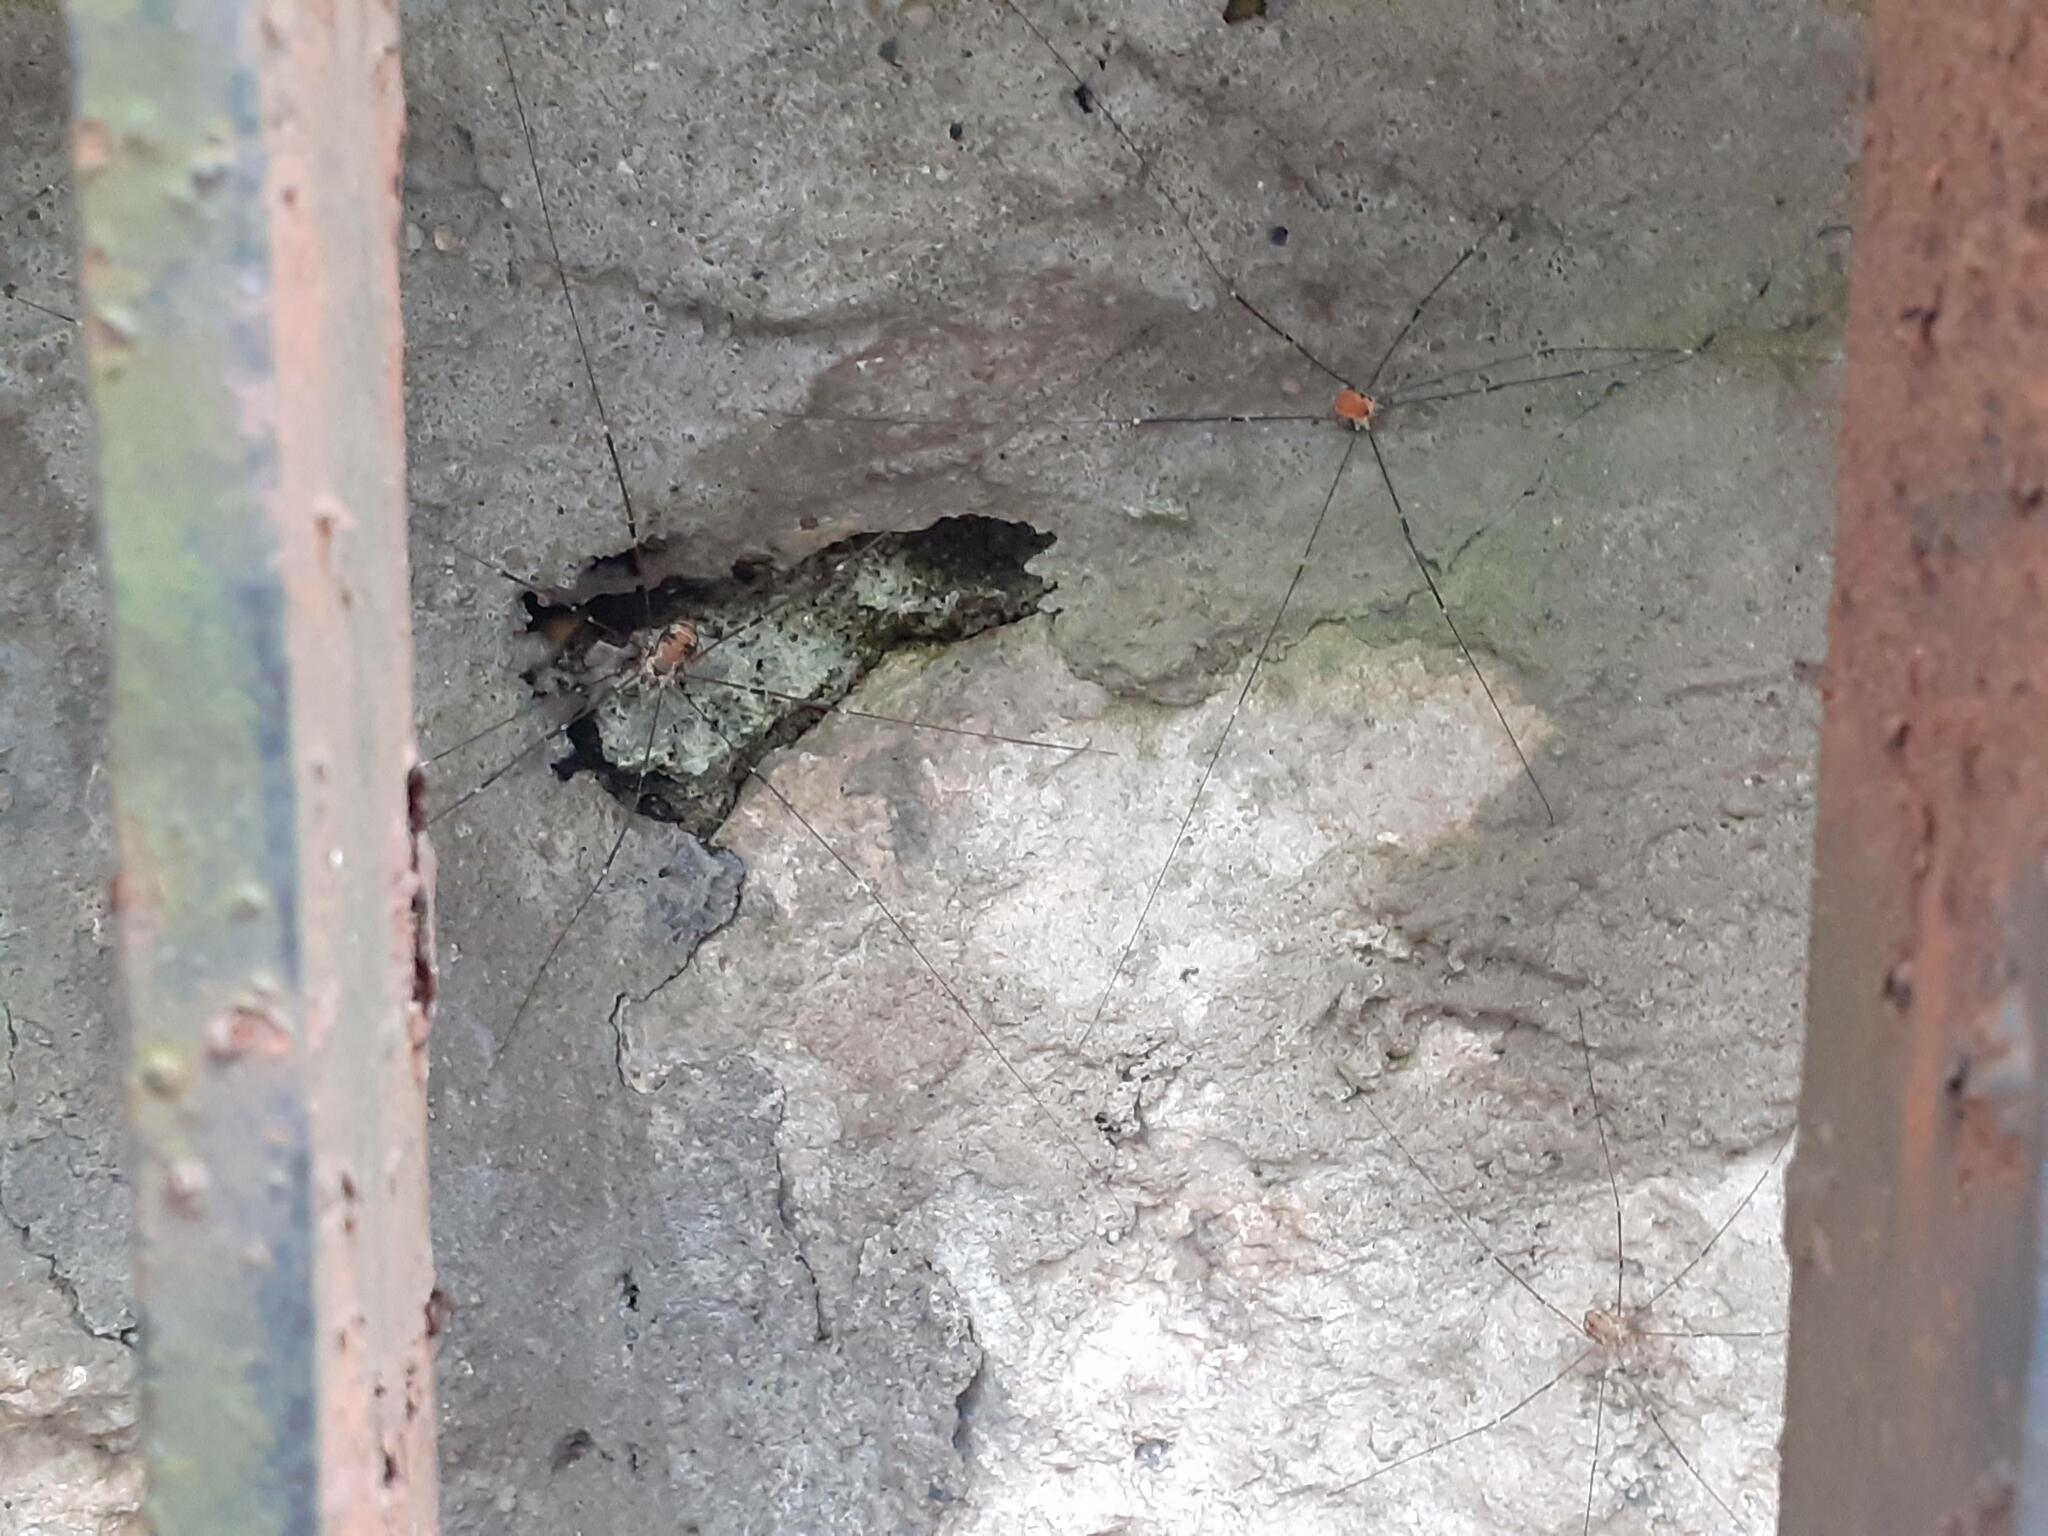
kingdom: Animalia
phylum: Arthropoda
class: Arachnida
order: Opiliones
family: Sclerosomatidae
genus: Leiobunum
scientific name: Leiobunum limbatum
